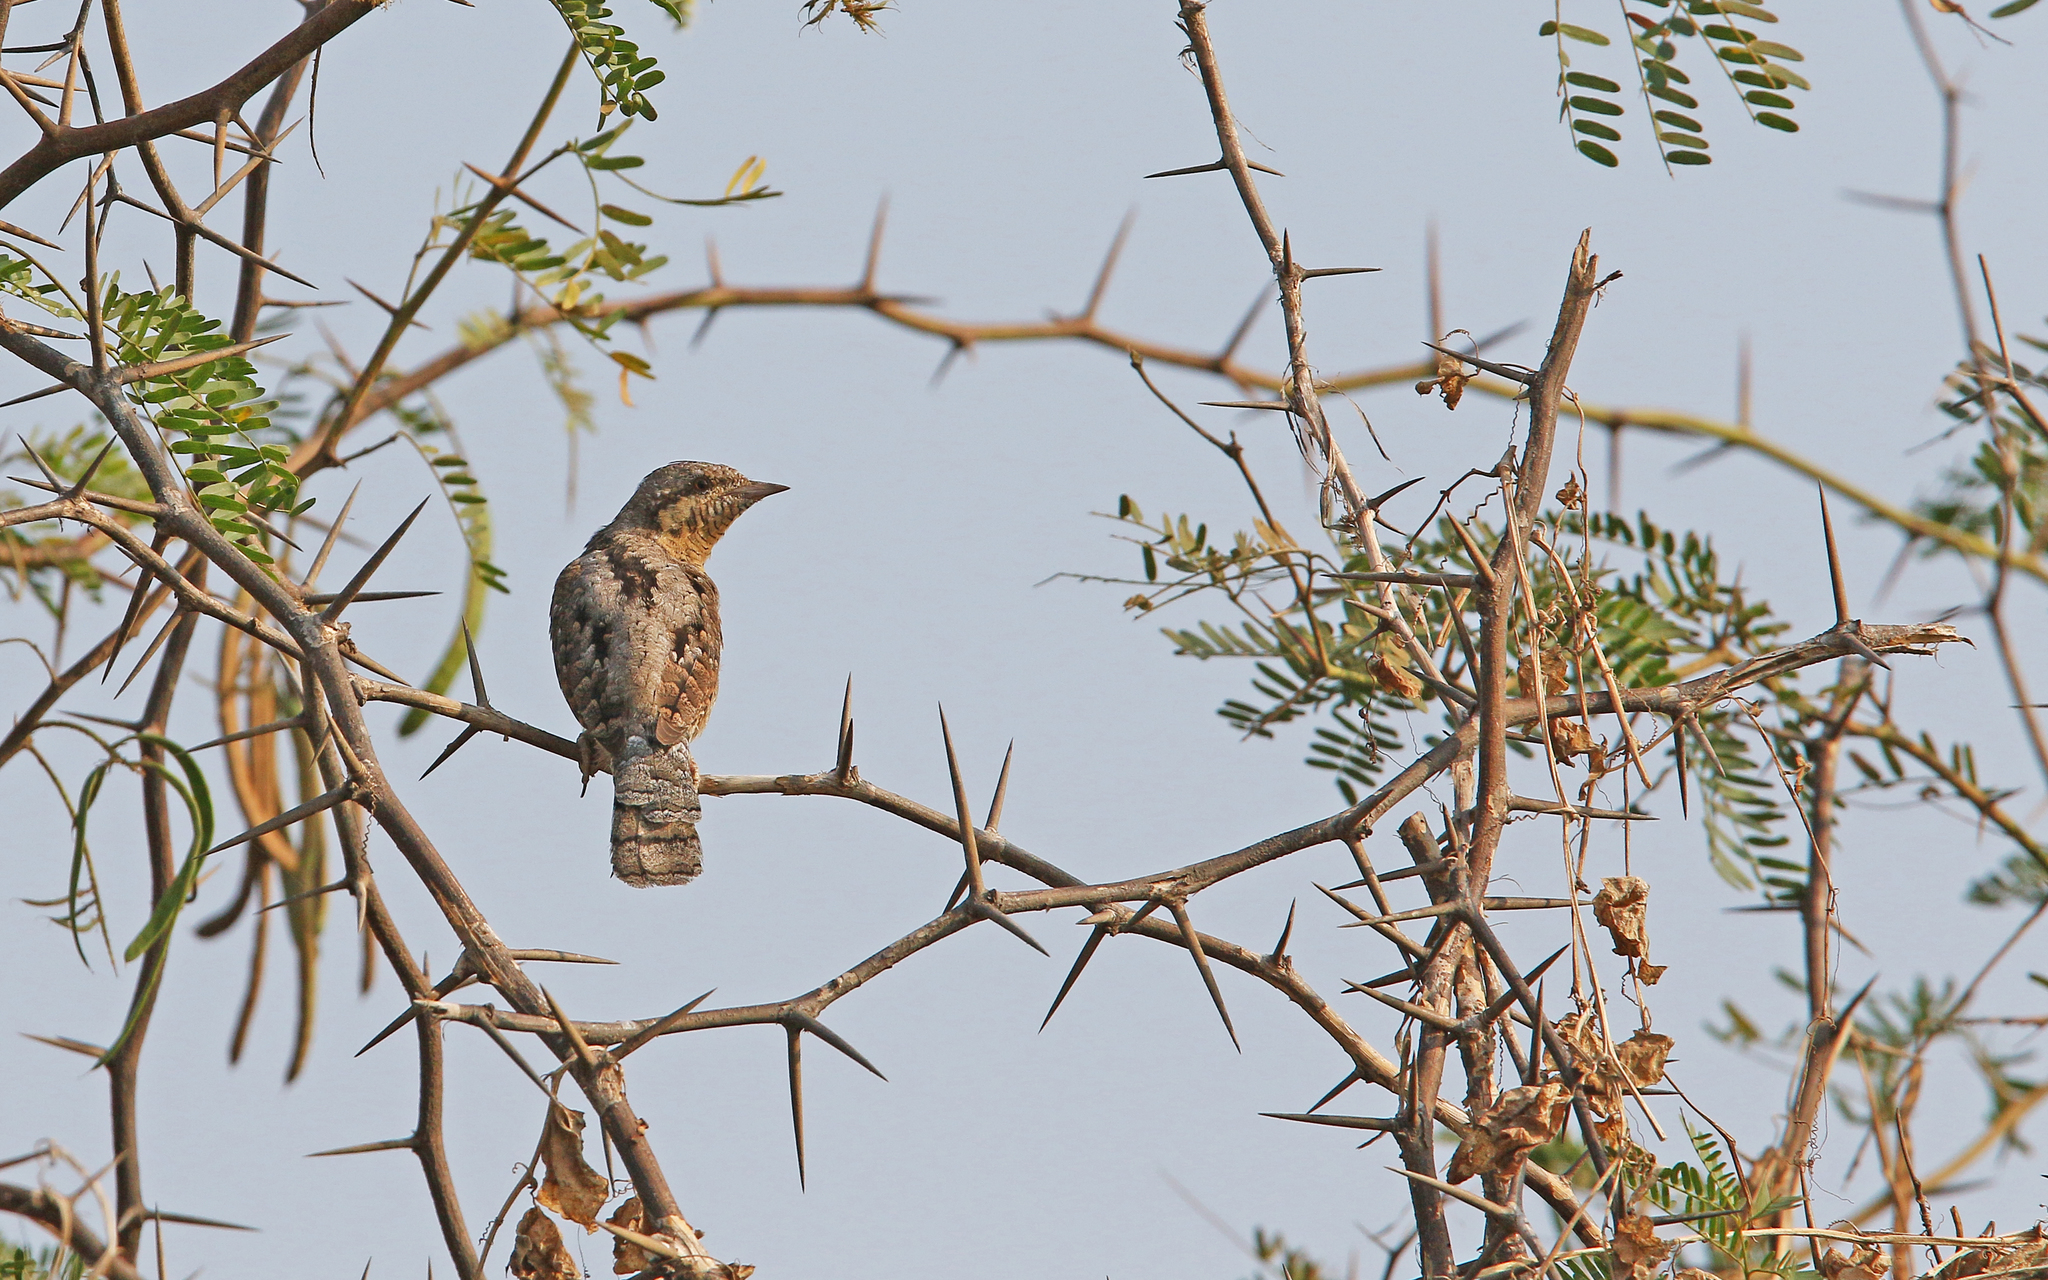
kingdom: Animalia
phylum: Chordata
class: Aves
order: Piciformes
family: Picidae
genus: Jynx
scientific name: Jynx torquilla
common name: Eurasian wryneck
